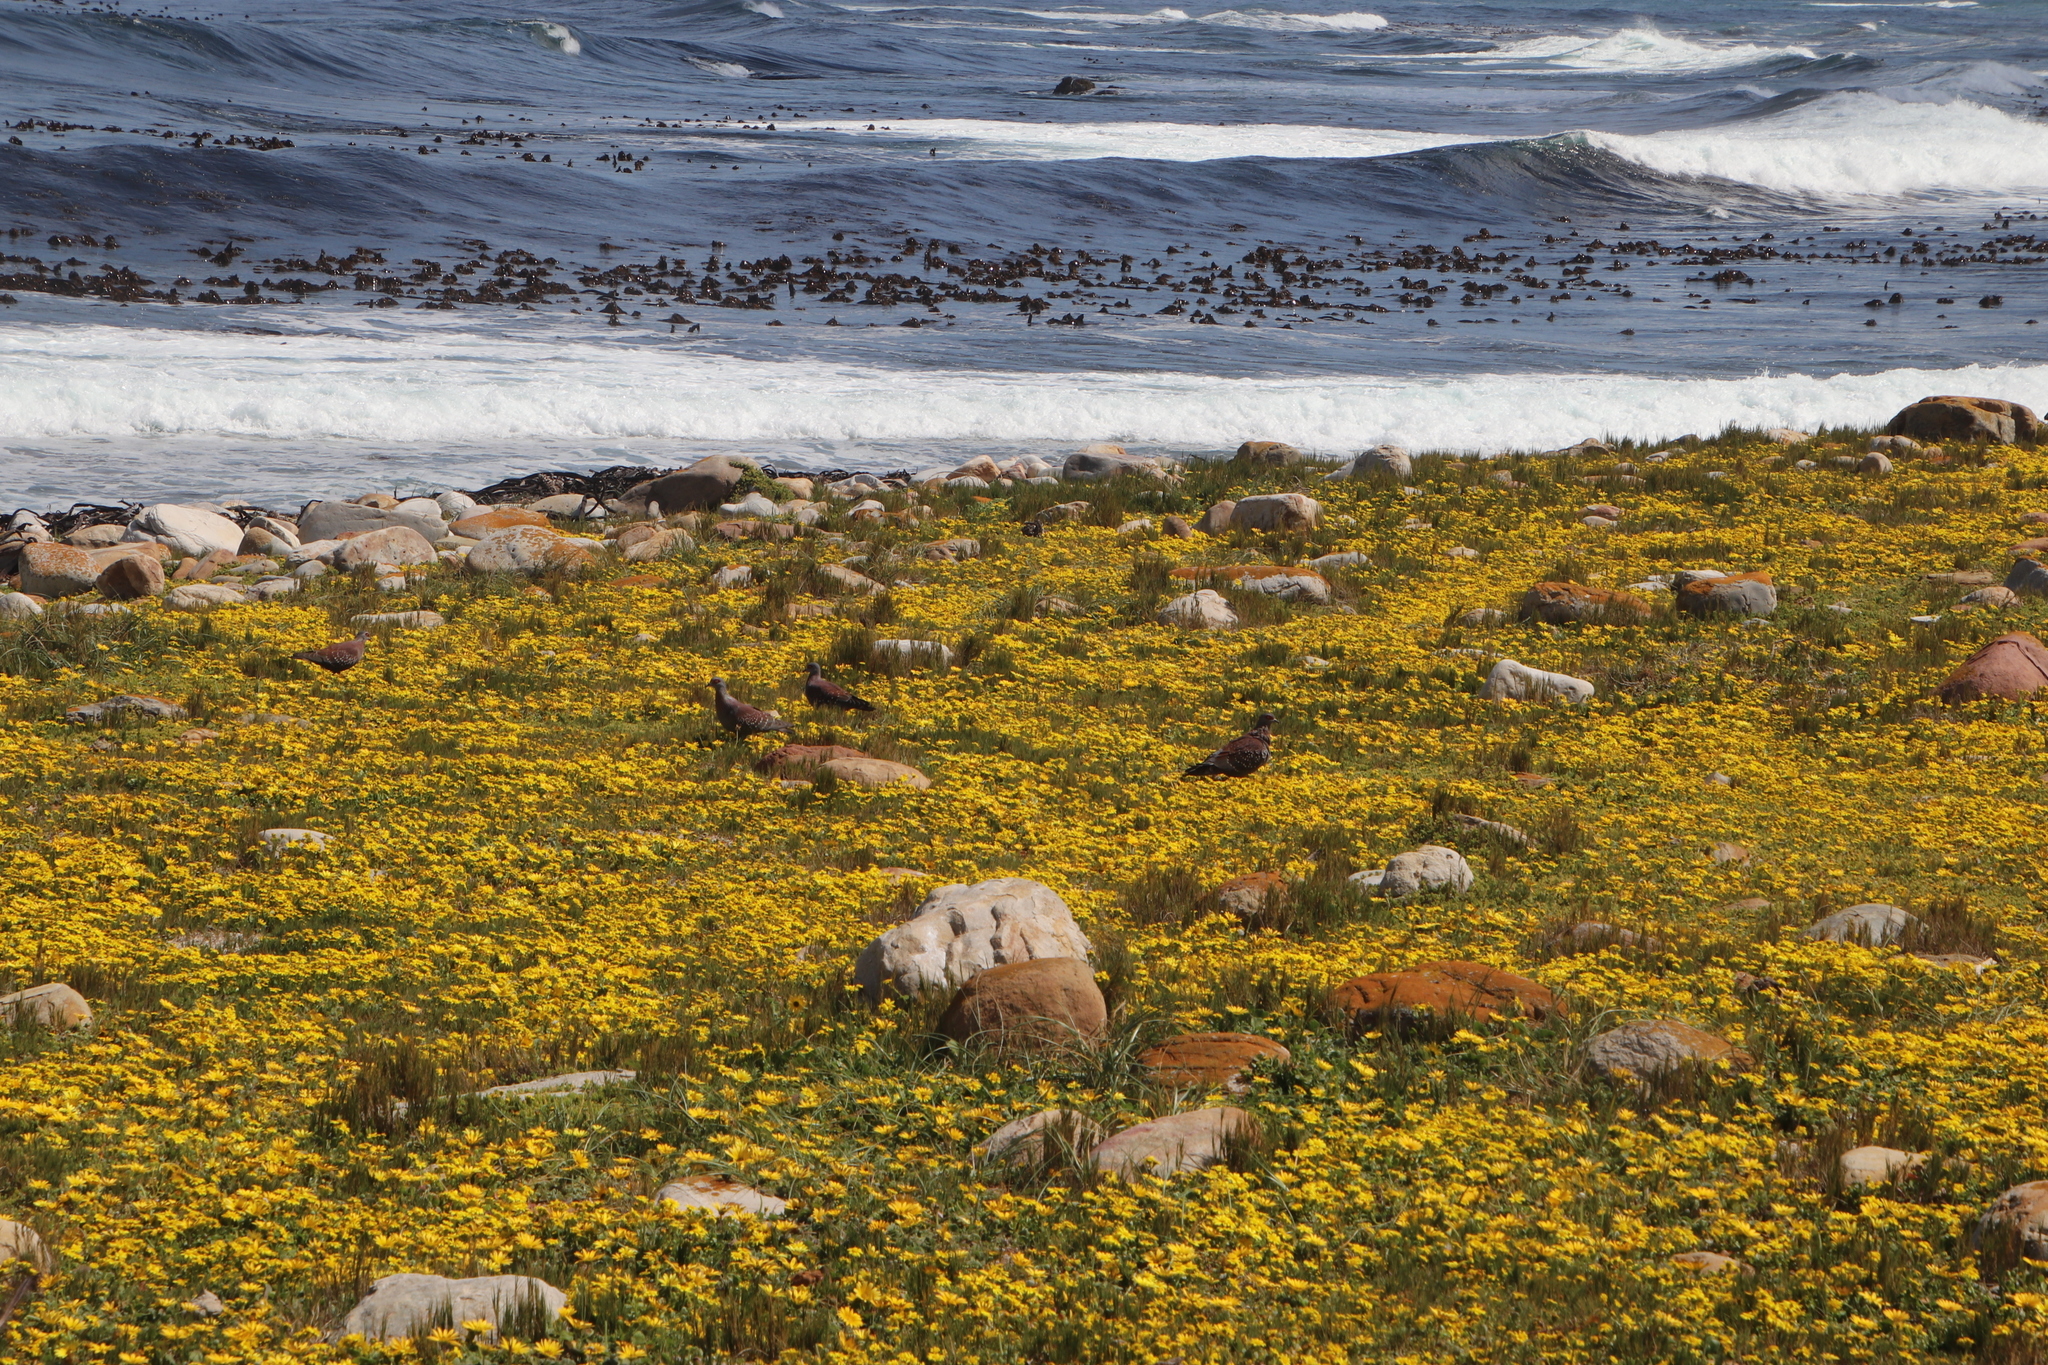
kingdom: Animalia
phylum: Chordata
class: Aves
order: Columbiformes
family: Columbidae
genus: Columba
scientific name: Columba guinea
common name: Speckled pigeon
